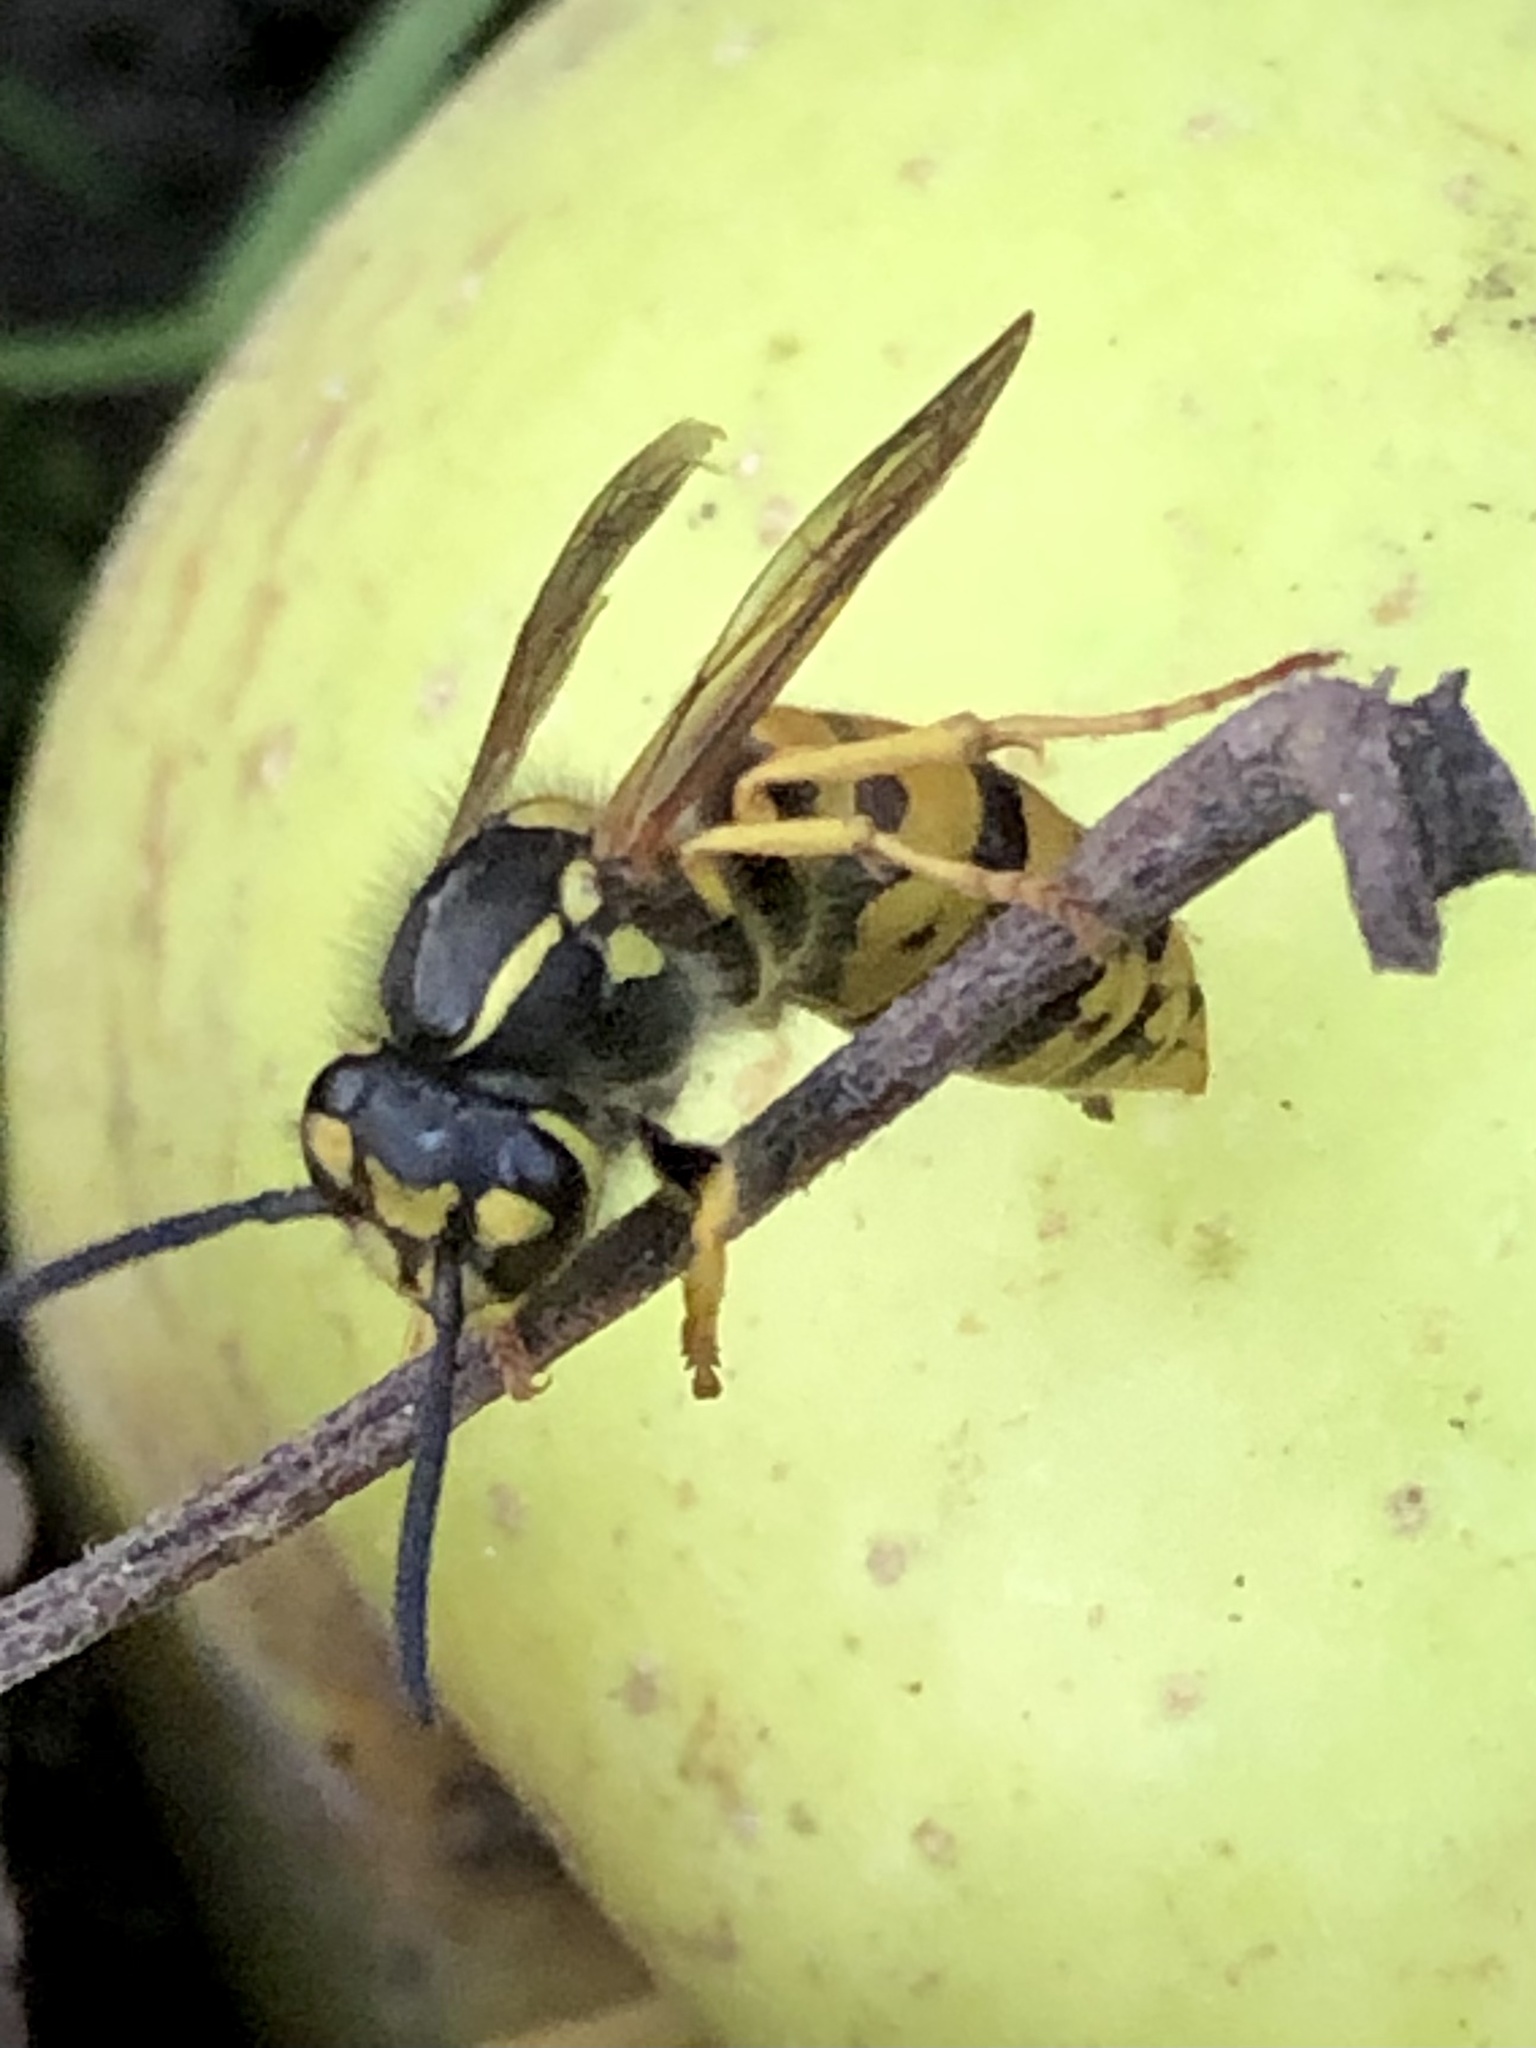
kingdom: Animalia
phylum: Arthropoda
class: Insecta
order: Hymenoptera
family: Vespidae
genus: Vespula
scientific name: Vespula germanica
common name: German wasp
